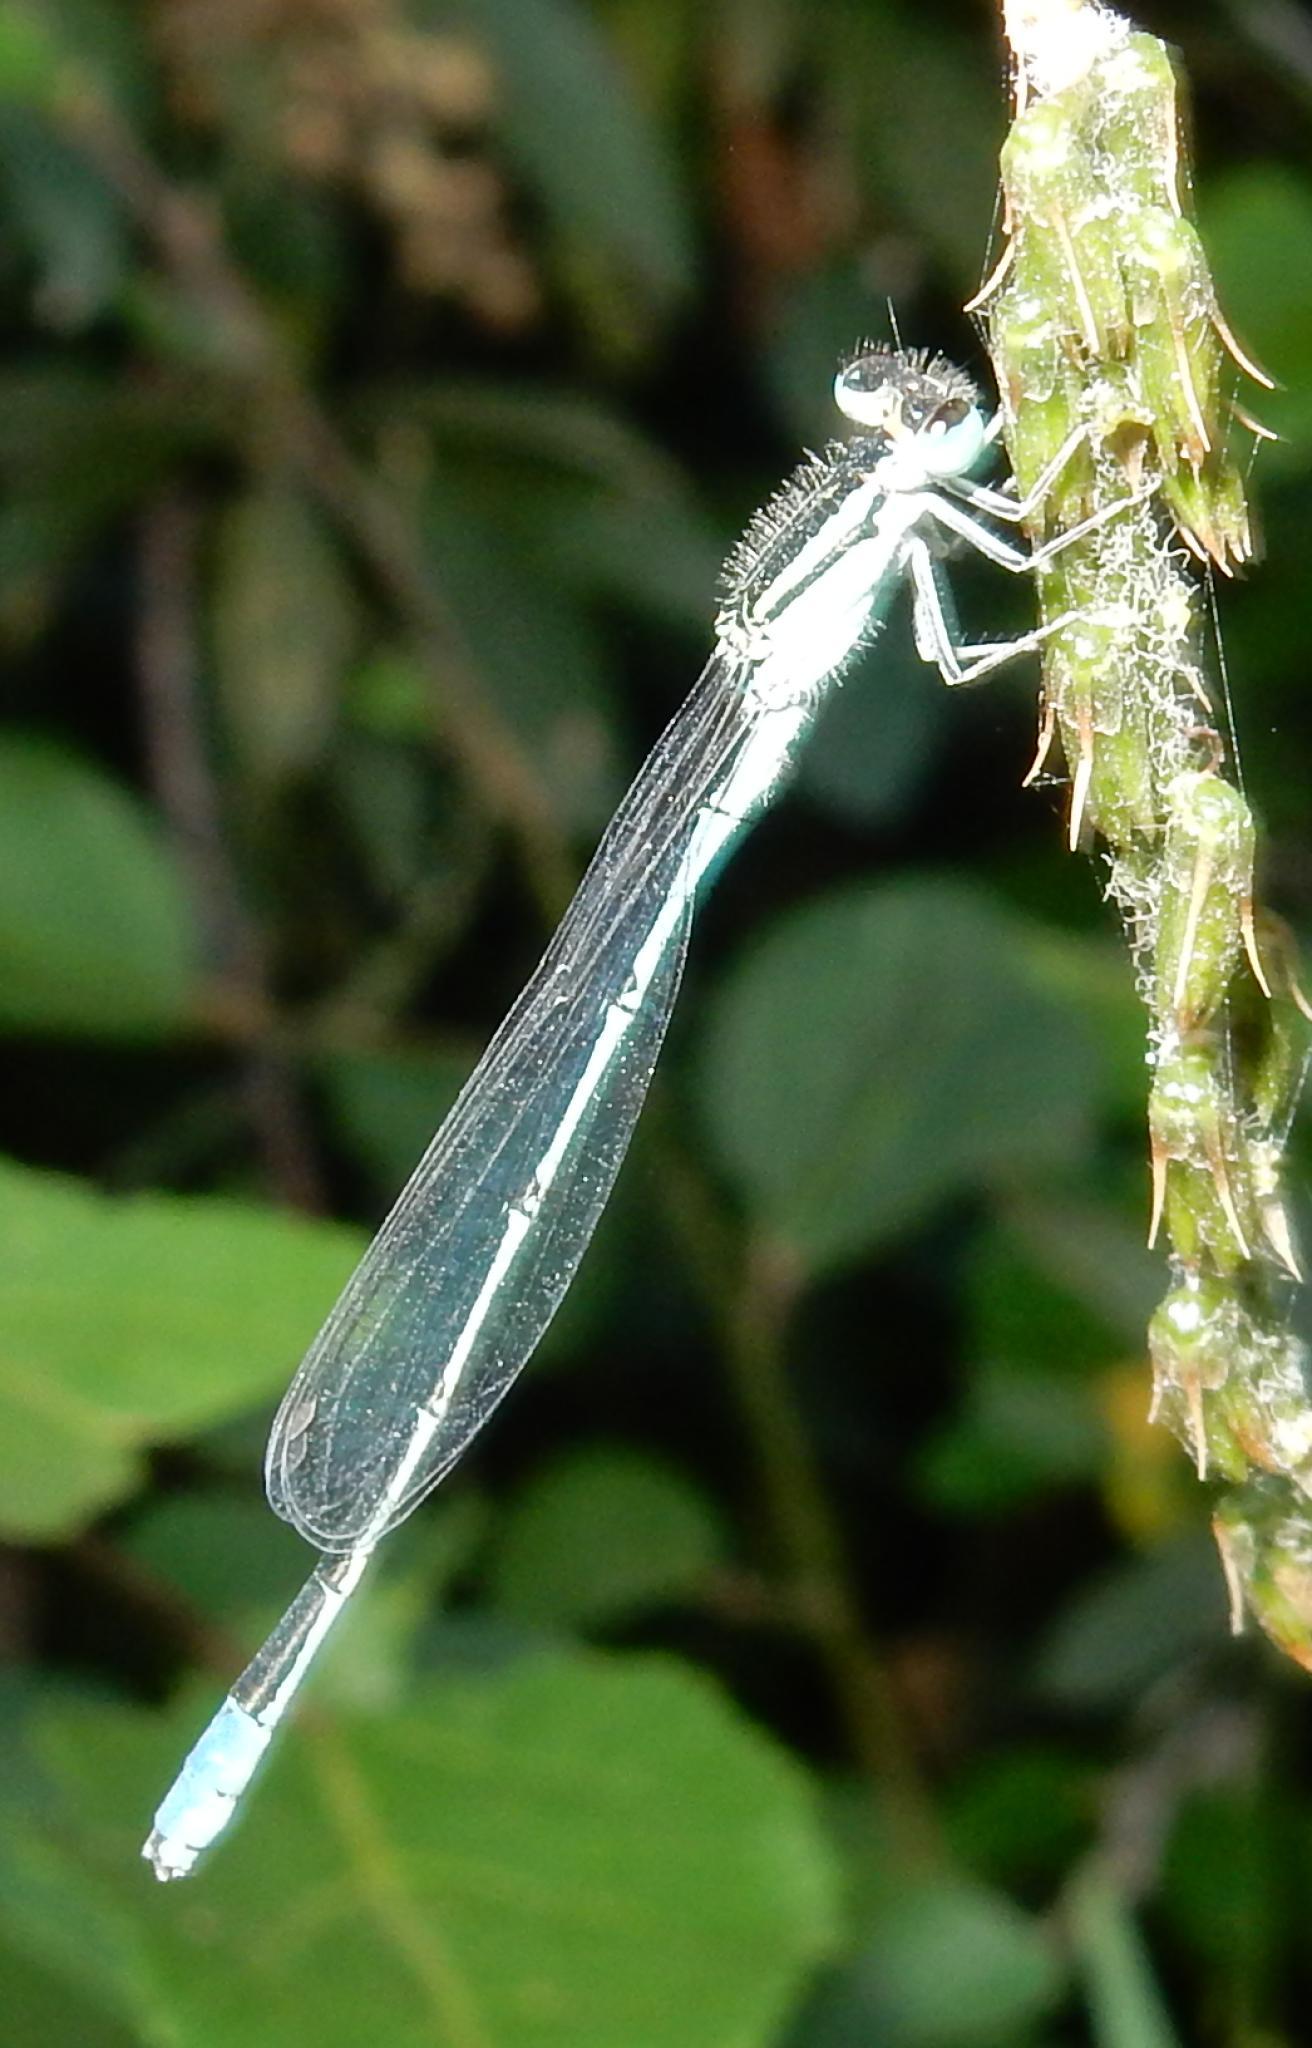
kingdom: Animalia
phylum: Arthropoda
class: Insecta
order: Odonata
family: Coenagrionidae
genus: Africallagma
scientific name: Africallagma glaucum
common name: Swamp bluet
